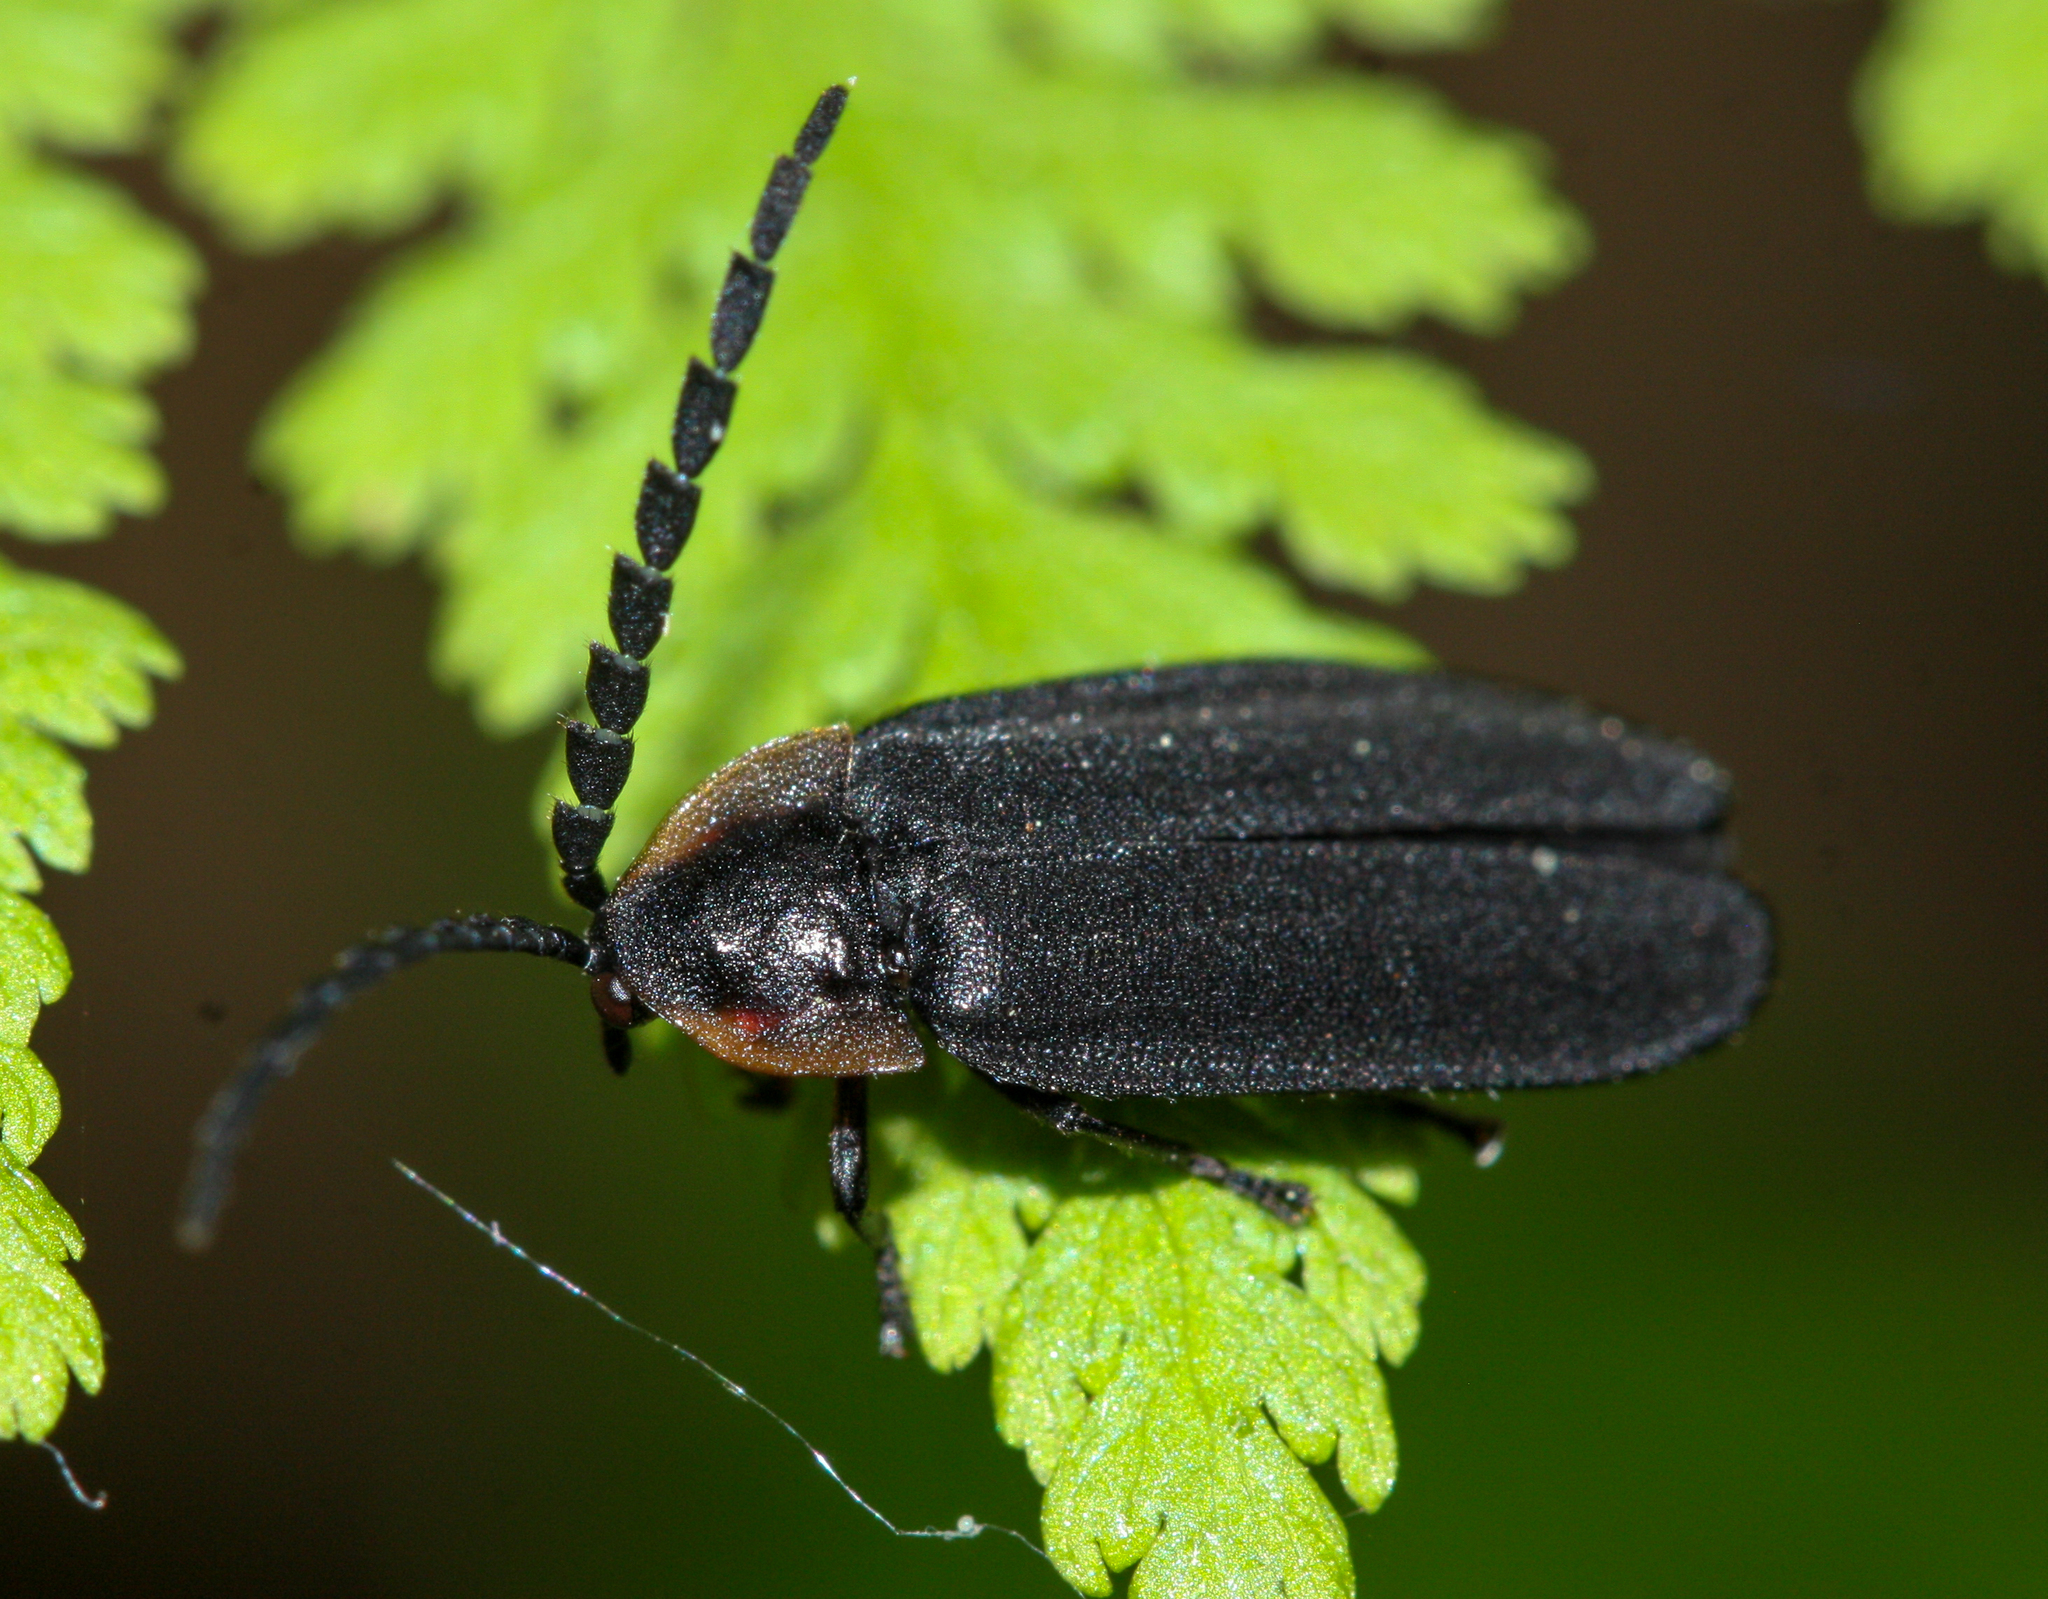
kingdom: Animalia
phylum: Arthropoda
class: Insecta
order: Coleoptera
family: Lampyridae
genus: Lucidota
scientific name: Lucidota atra
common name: Black firefly
